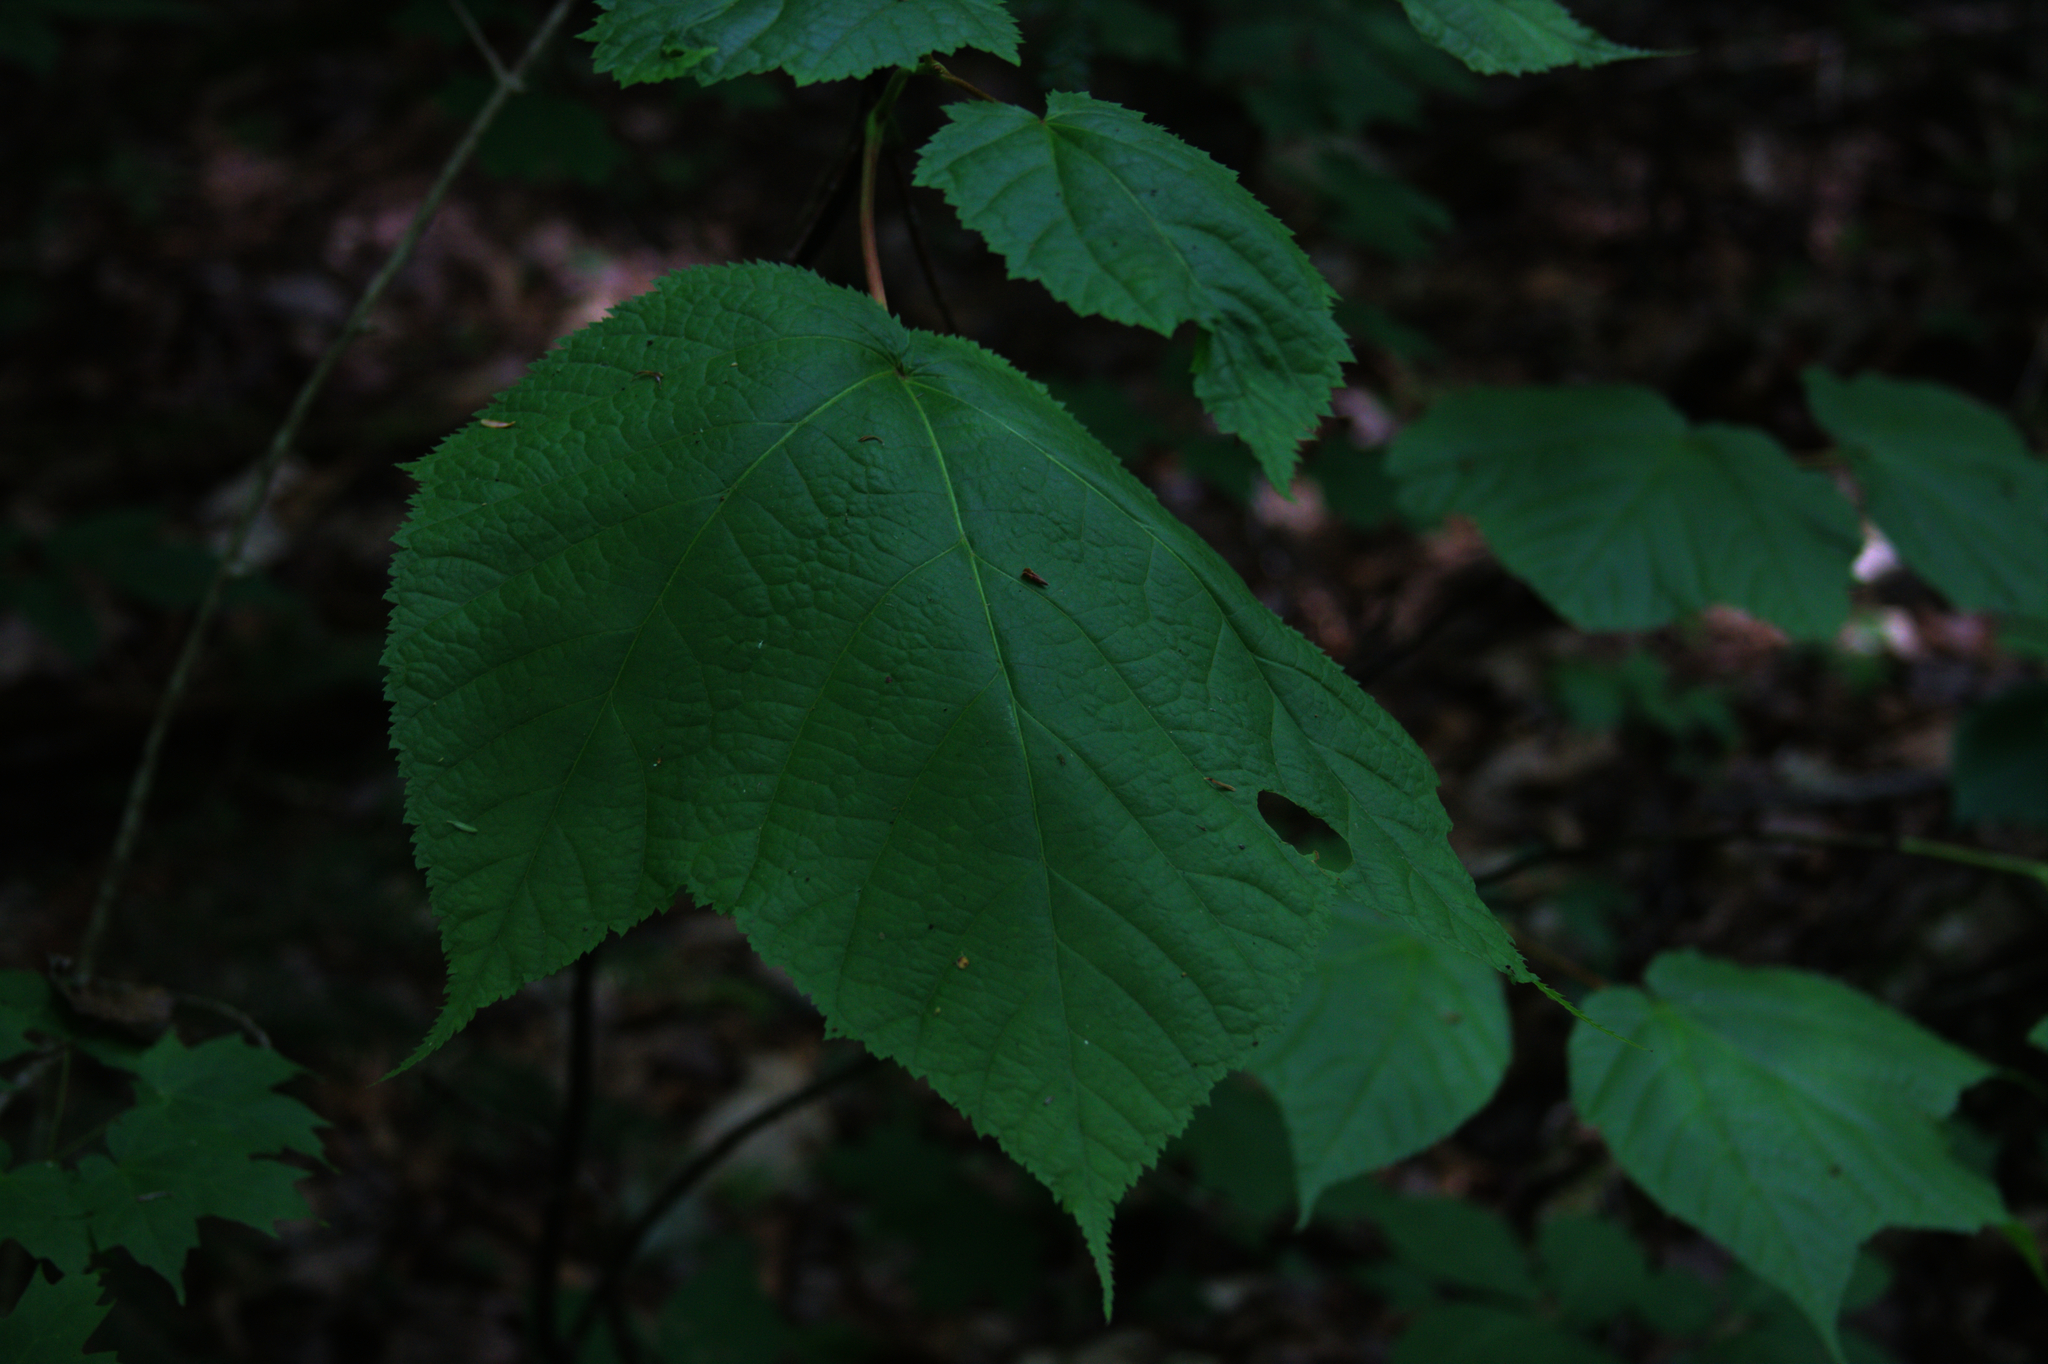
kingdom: Plantae
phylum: Tracheophyta
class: Magnoliopsida
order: Sapindales
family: Sapindaceae
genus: Acer
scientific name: Acer pensylvanicum
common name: Moosewood
